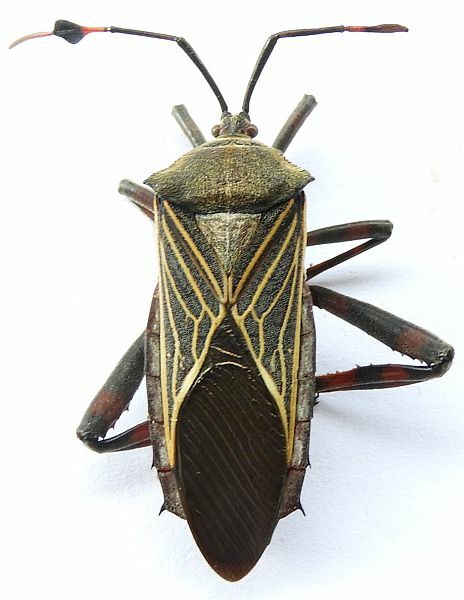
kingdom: Animalia
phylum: Arthropoda
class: Insecta
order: Hemiptera
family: Coreidae
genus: Thasus
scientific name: Thasus neocalifornicus
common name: Giant mesquite bug
